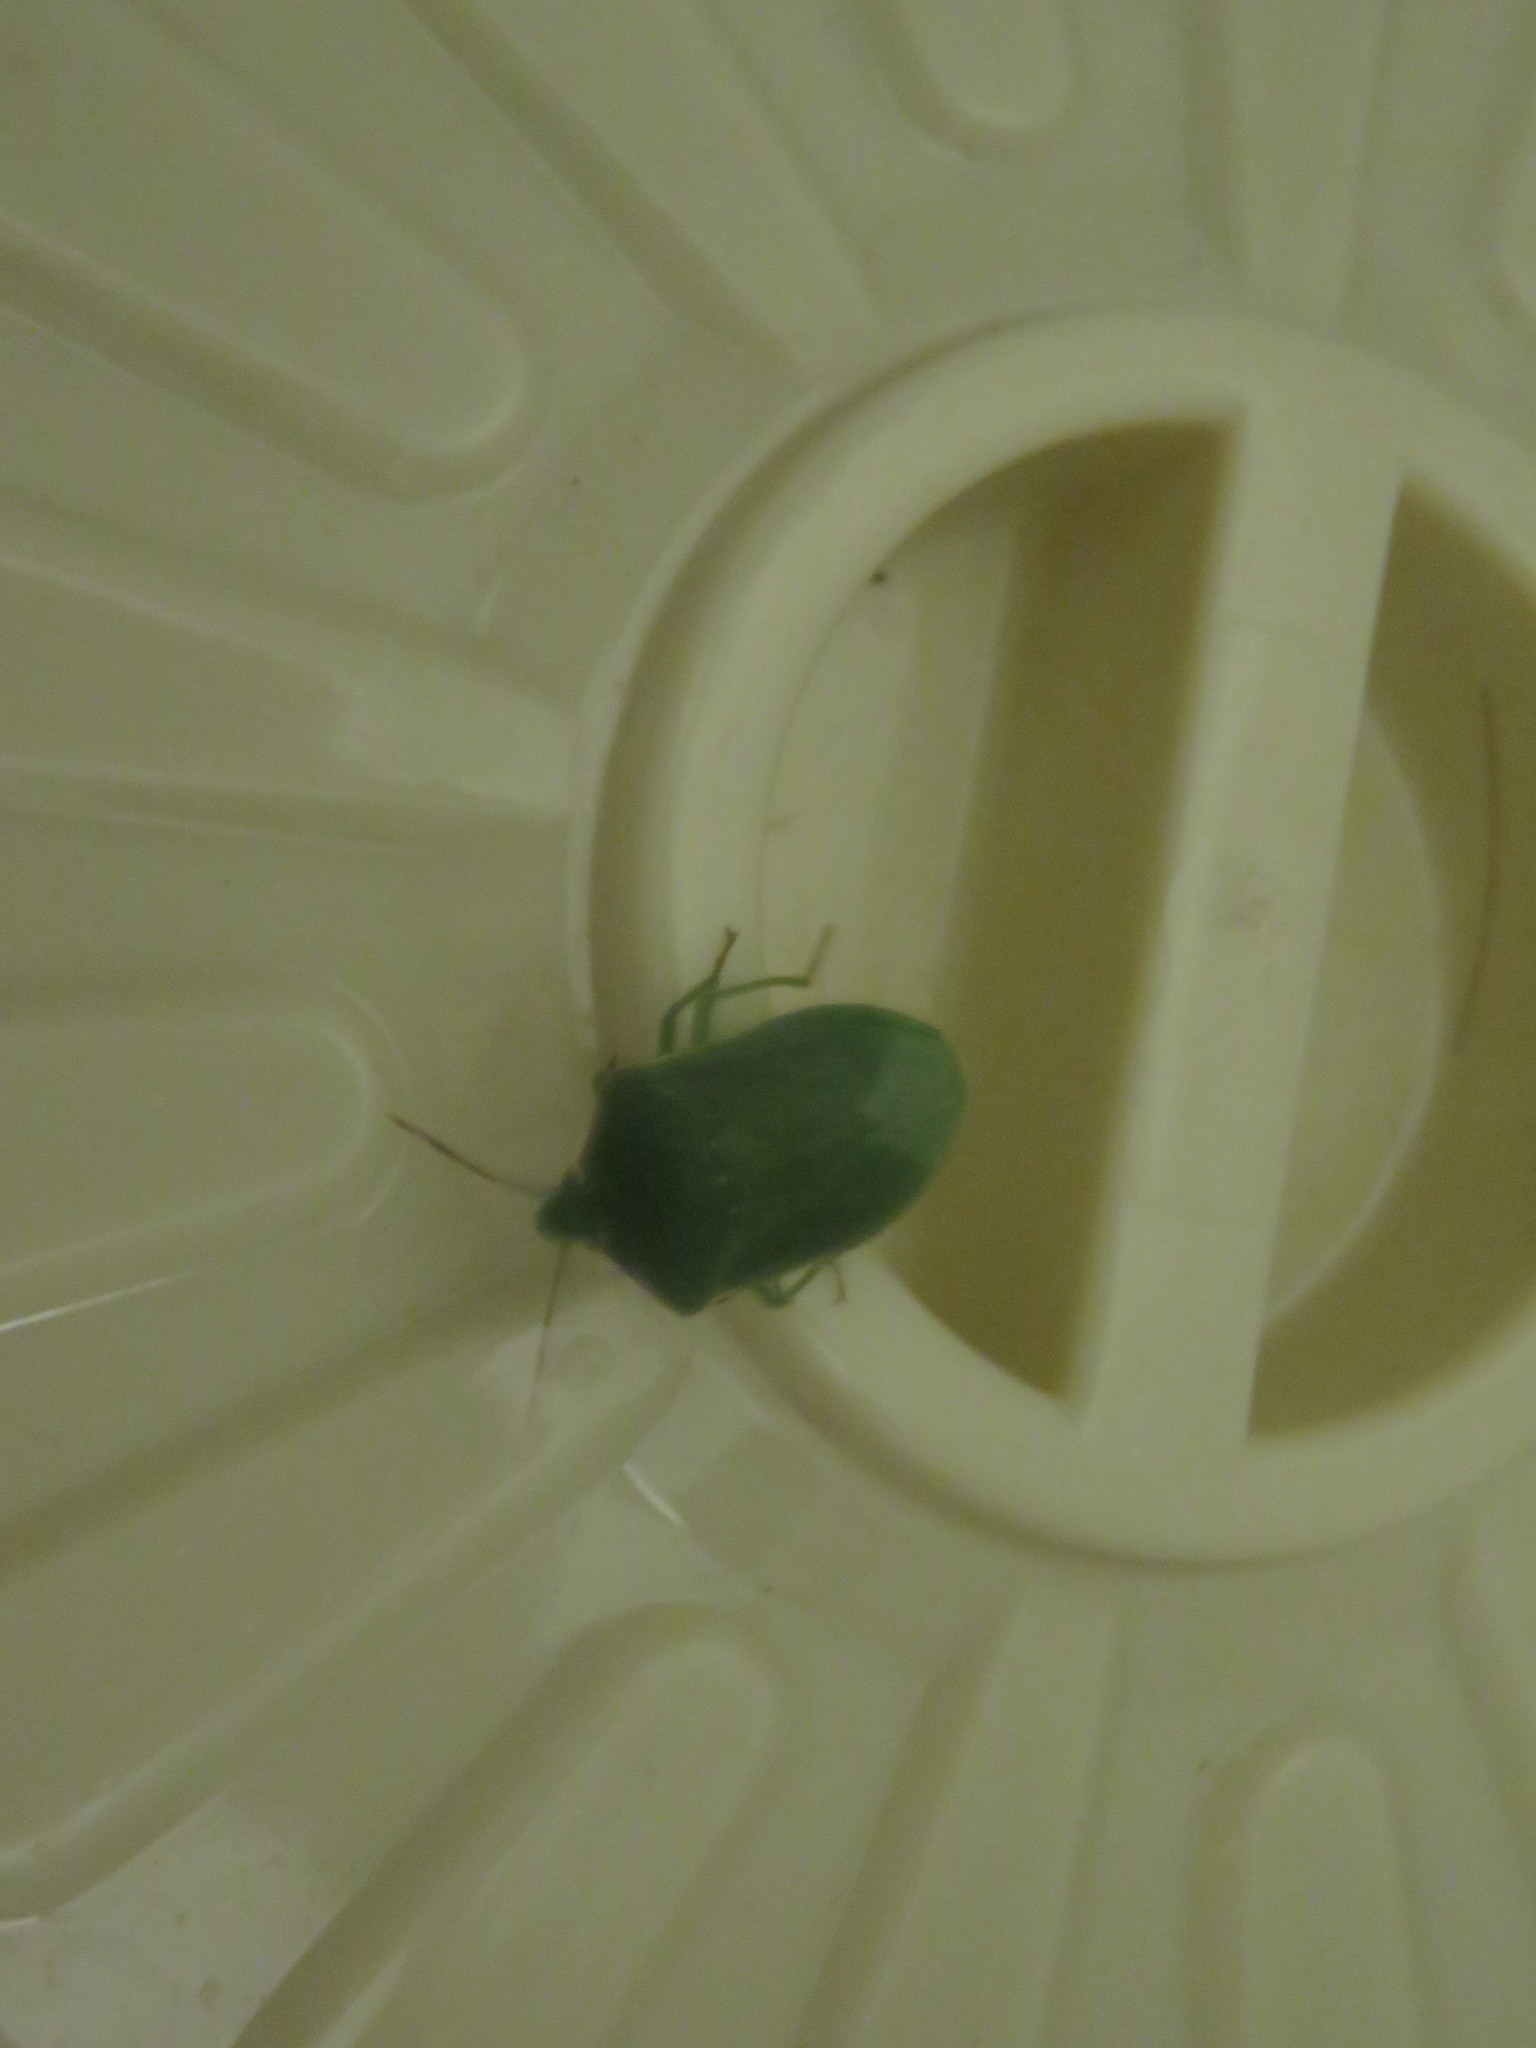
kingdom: Animalia
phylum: Arthropoda
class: Insecta
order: Hemiptera
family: Pentatomidae
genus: Nezara
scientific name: Nezara viridula
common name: Southern green stink bug
